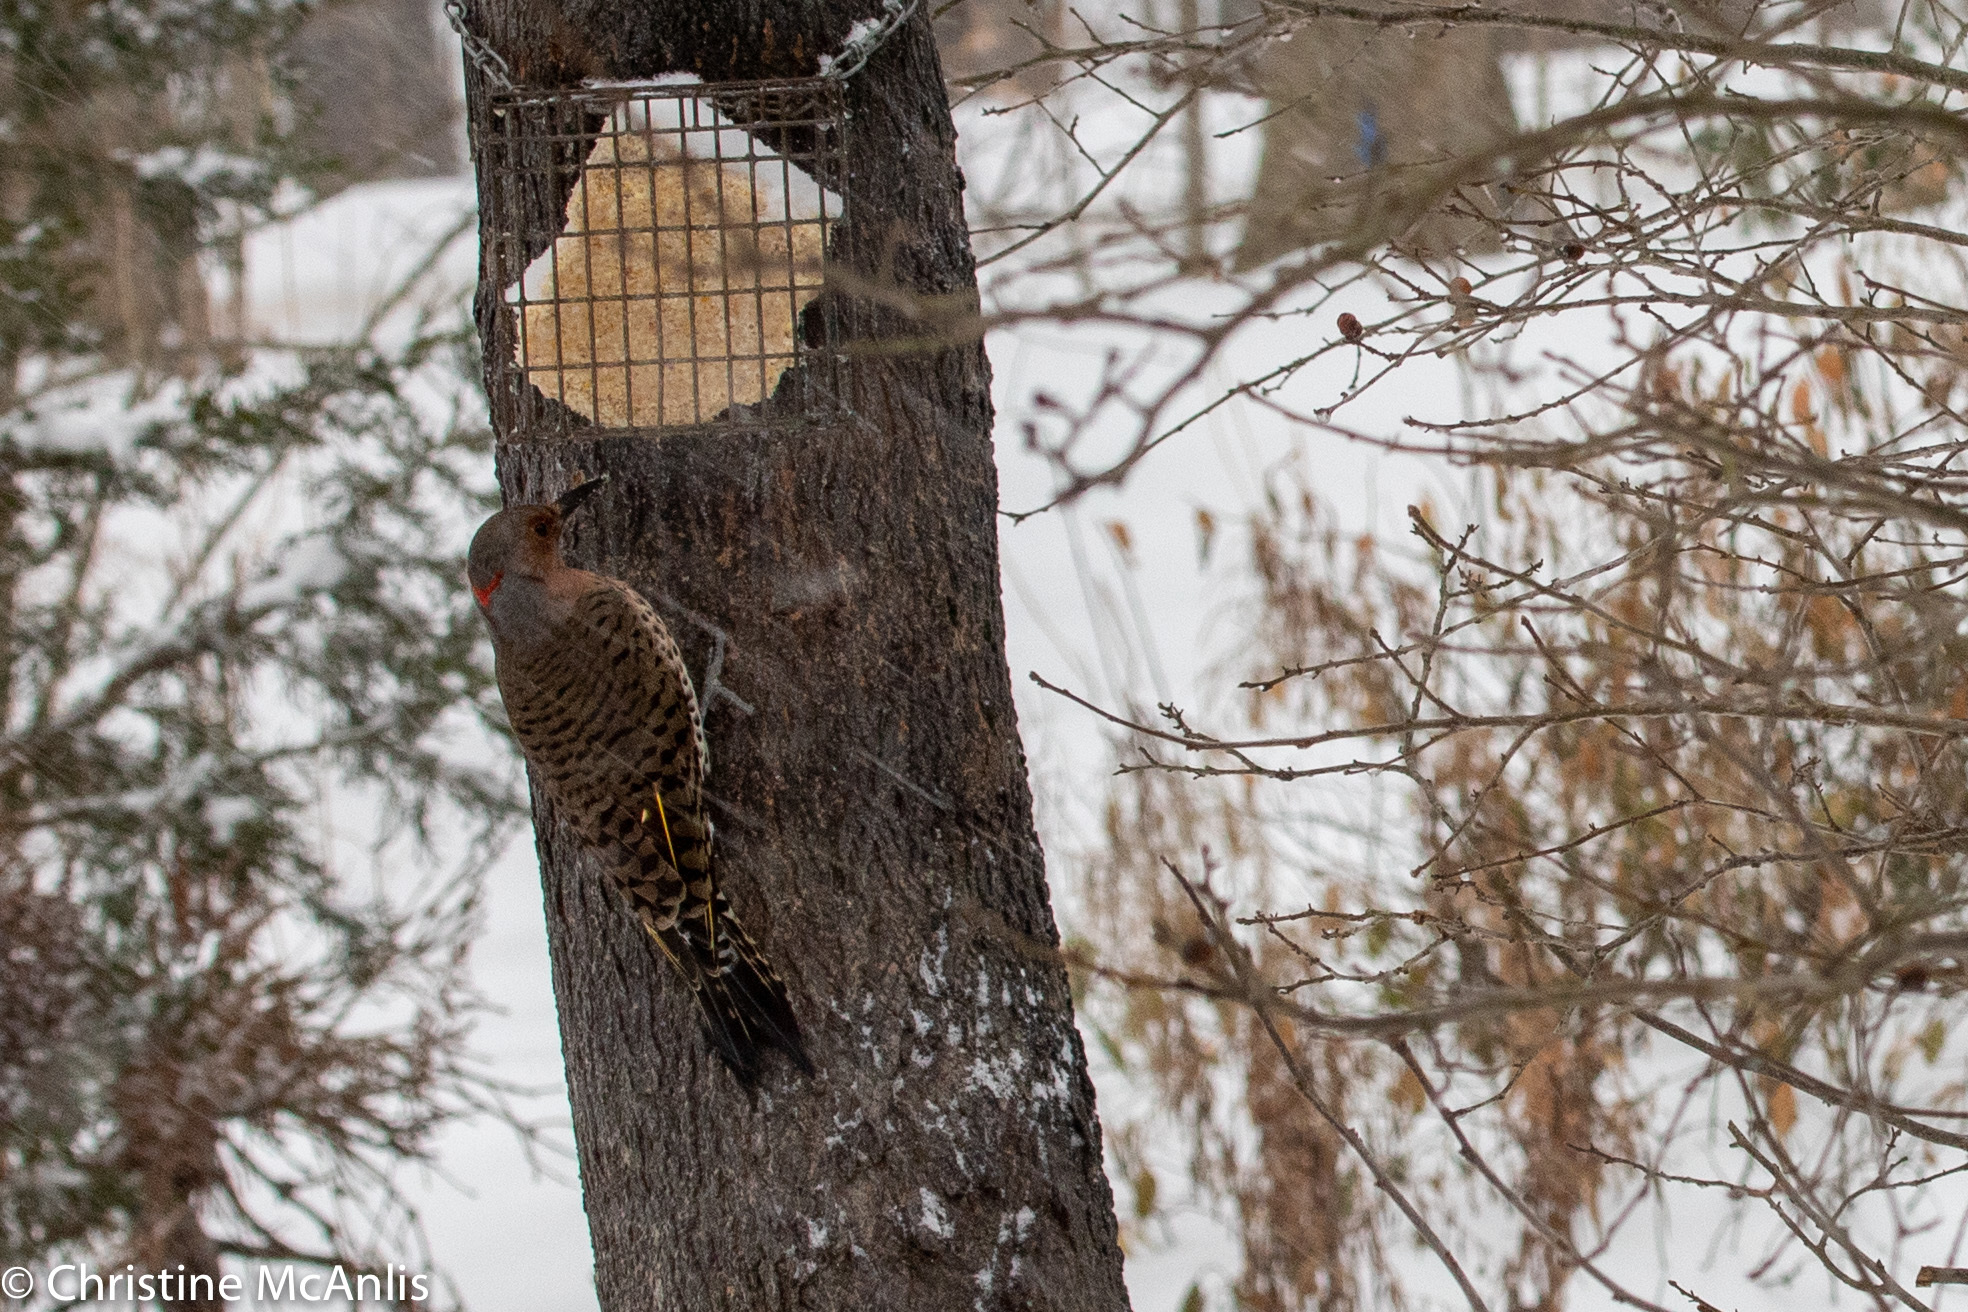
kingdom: Animalia
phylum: Chordata
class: Aves
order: Piciformes
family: Picidae
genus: Colaptes
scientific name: Colaptes auratus
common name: Northern flicker
